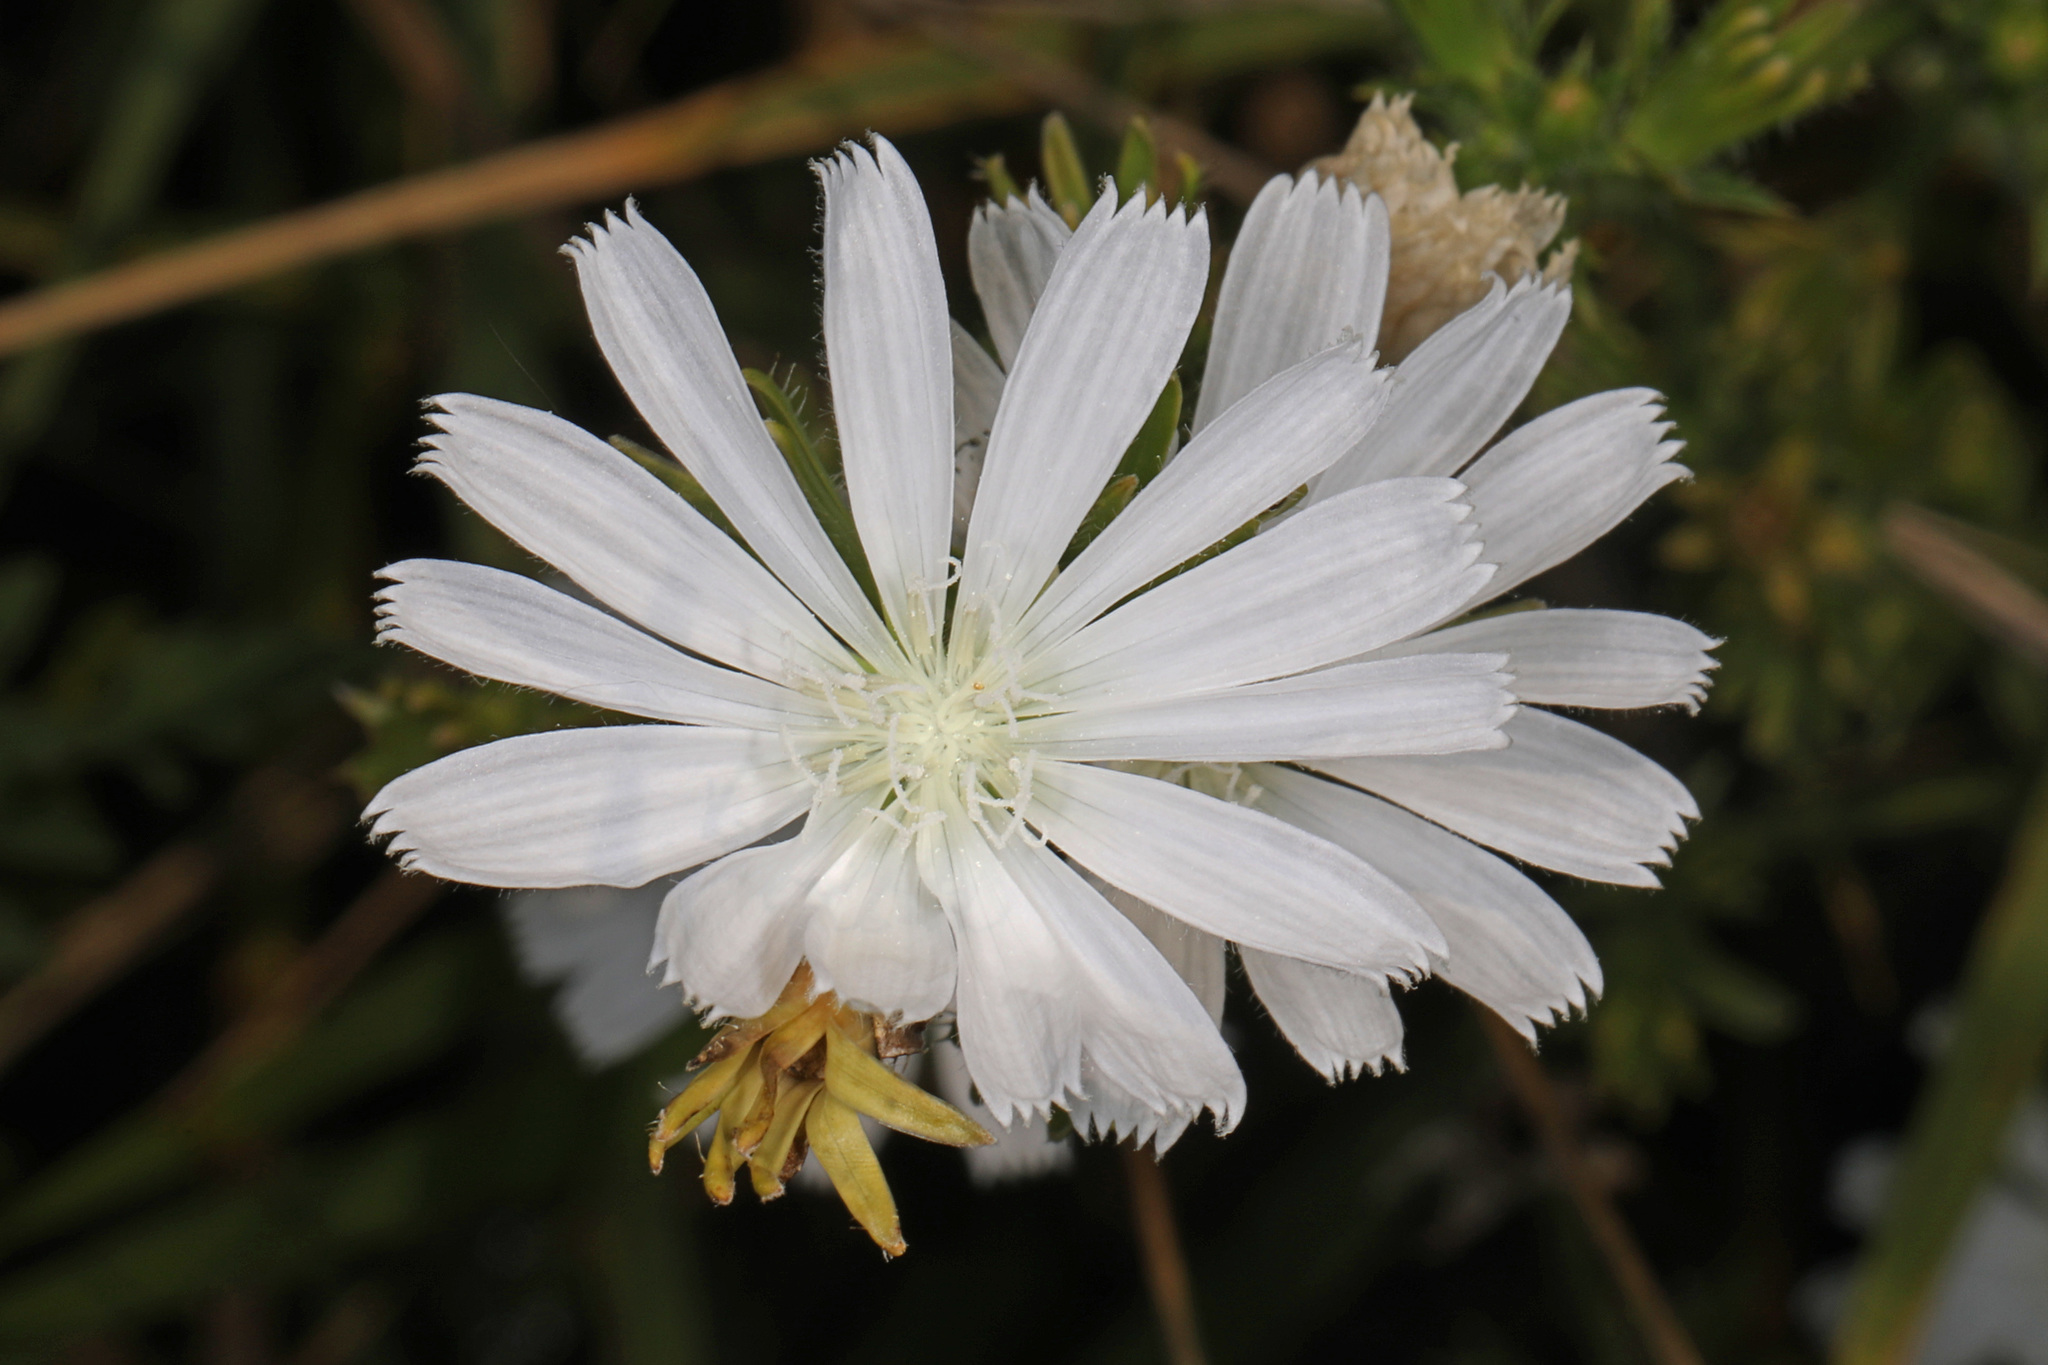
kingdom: Plantae
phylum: Tracheophyta
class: Magnoliopsida
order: Asterales
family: Asteraceae
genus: Cichorium
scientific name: Cichorium intybus
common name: Chicory
